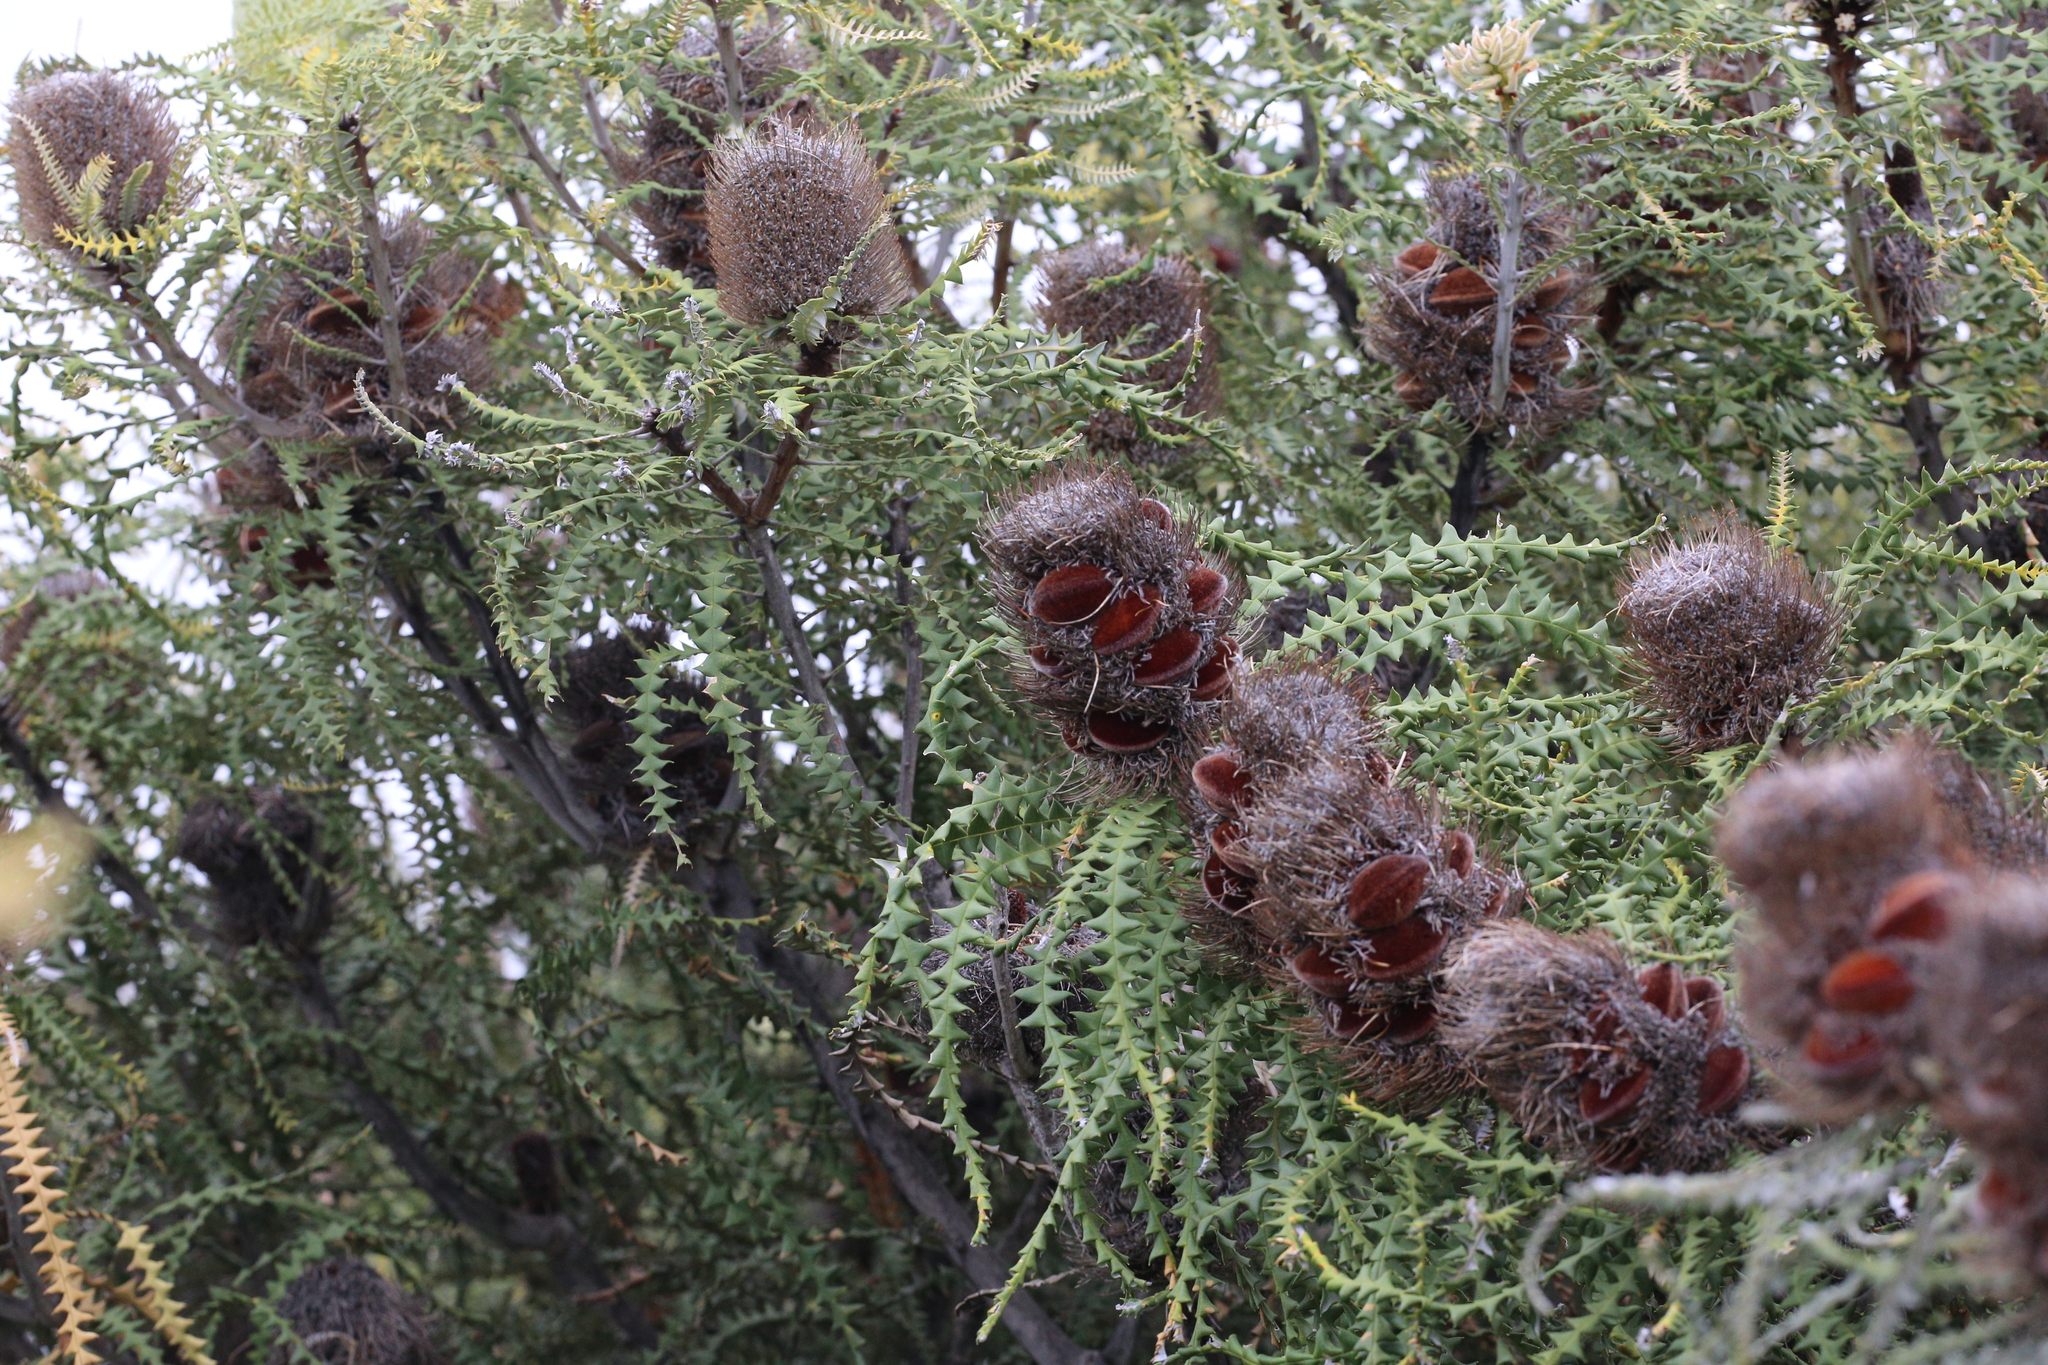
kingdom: Plantae
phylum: Tracheophyta
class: Magnoliopsida
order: Proteales
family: Proteaceae
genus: Banksia
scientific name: Banksia speciosa
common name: Showy banksia
